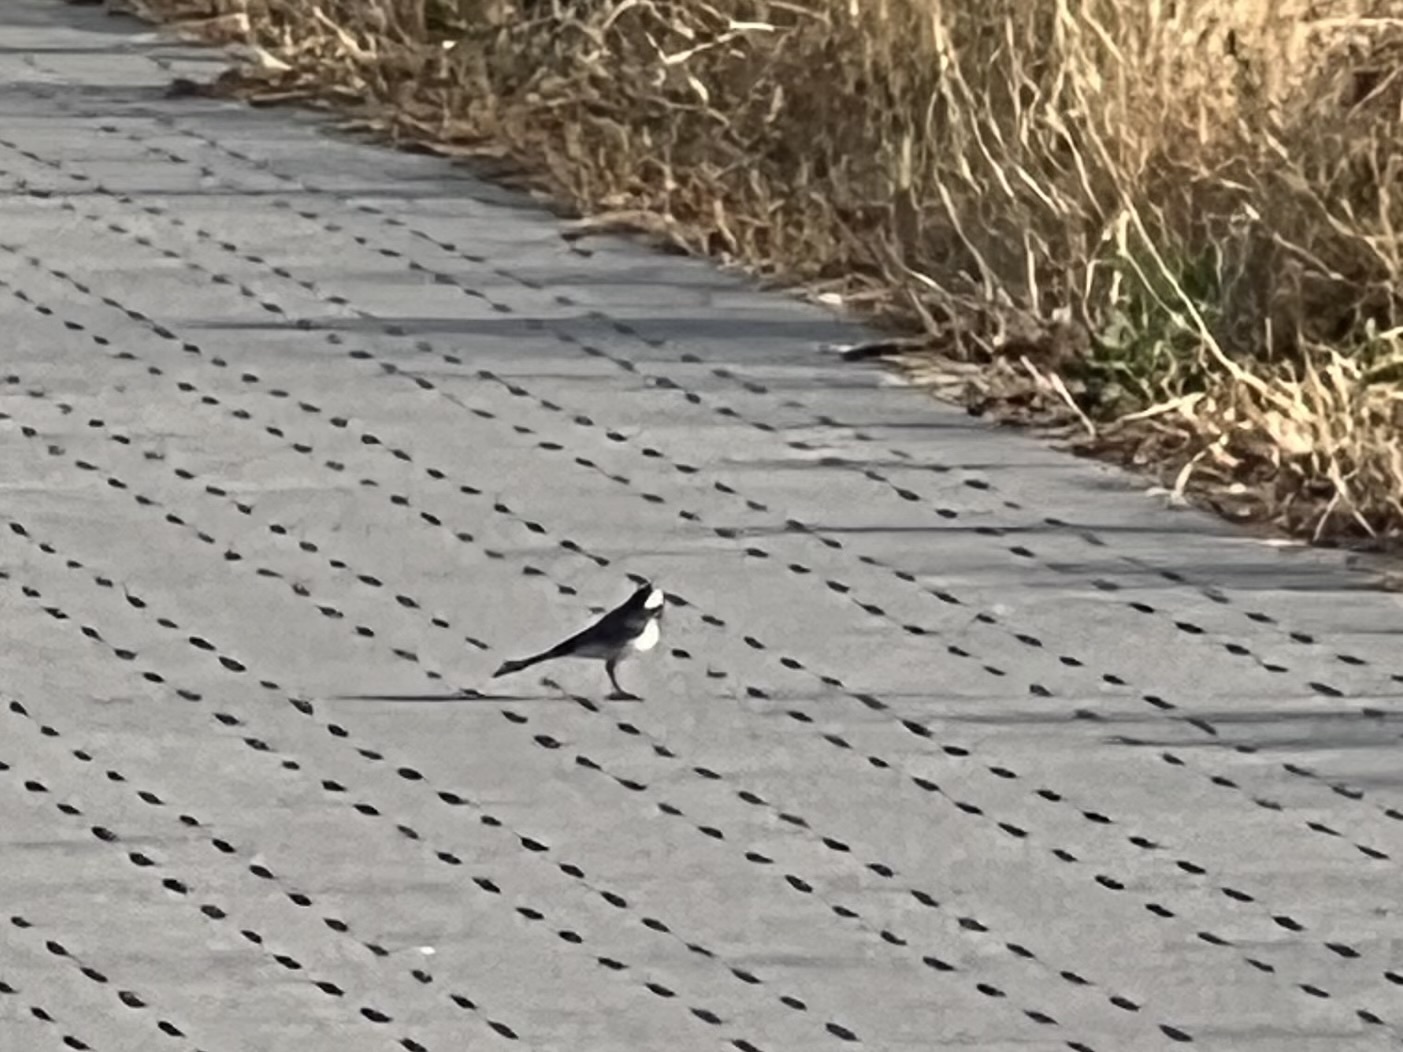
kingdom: Animalia
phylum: Chordata
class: Aves
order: Passeriformes
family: Motacillidae
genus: Motacilla
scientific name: Motacilla alba
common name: White wagtail
